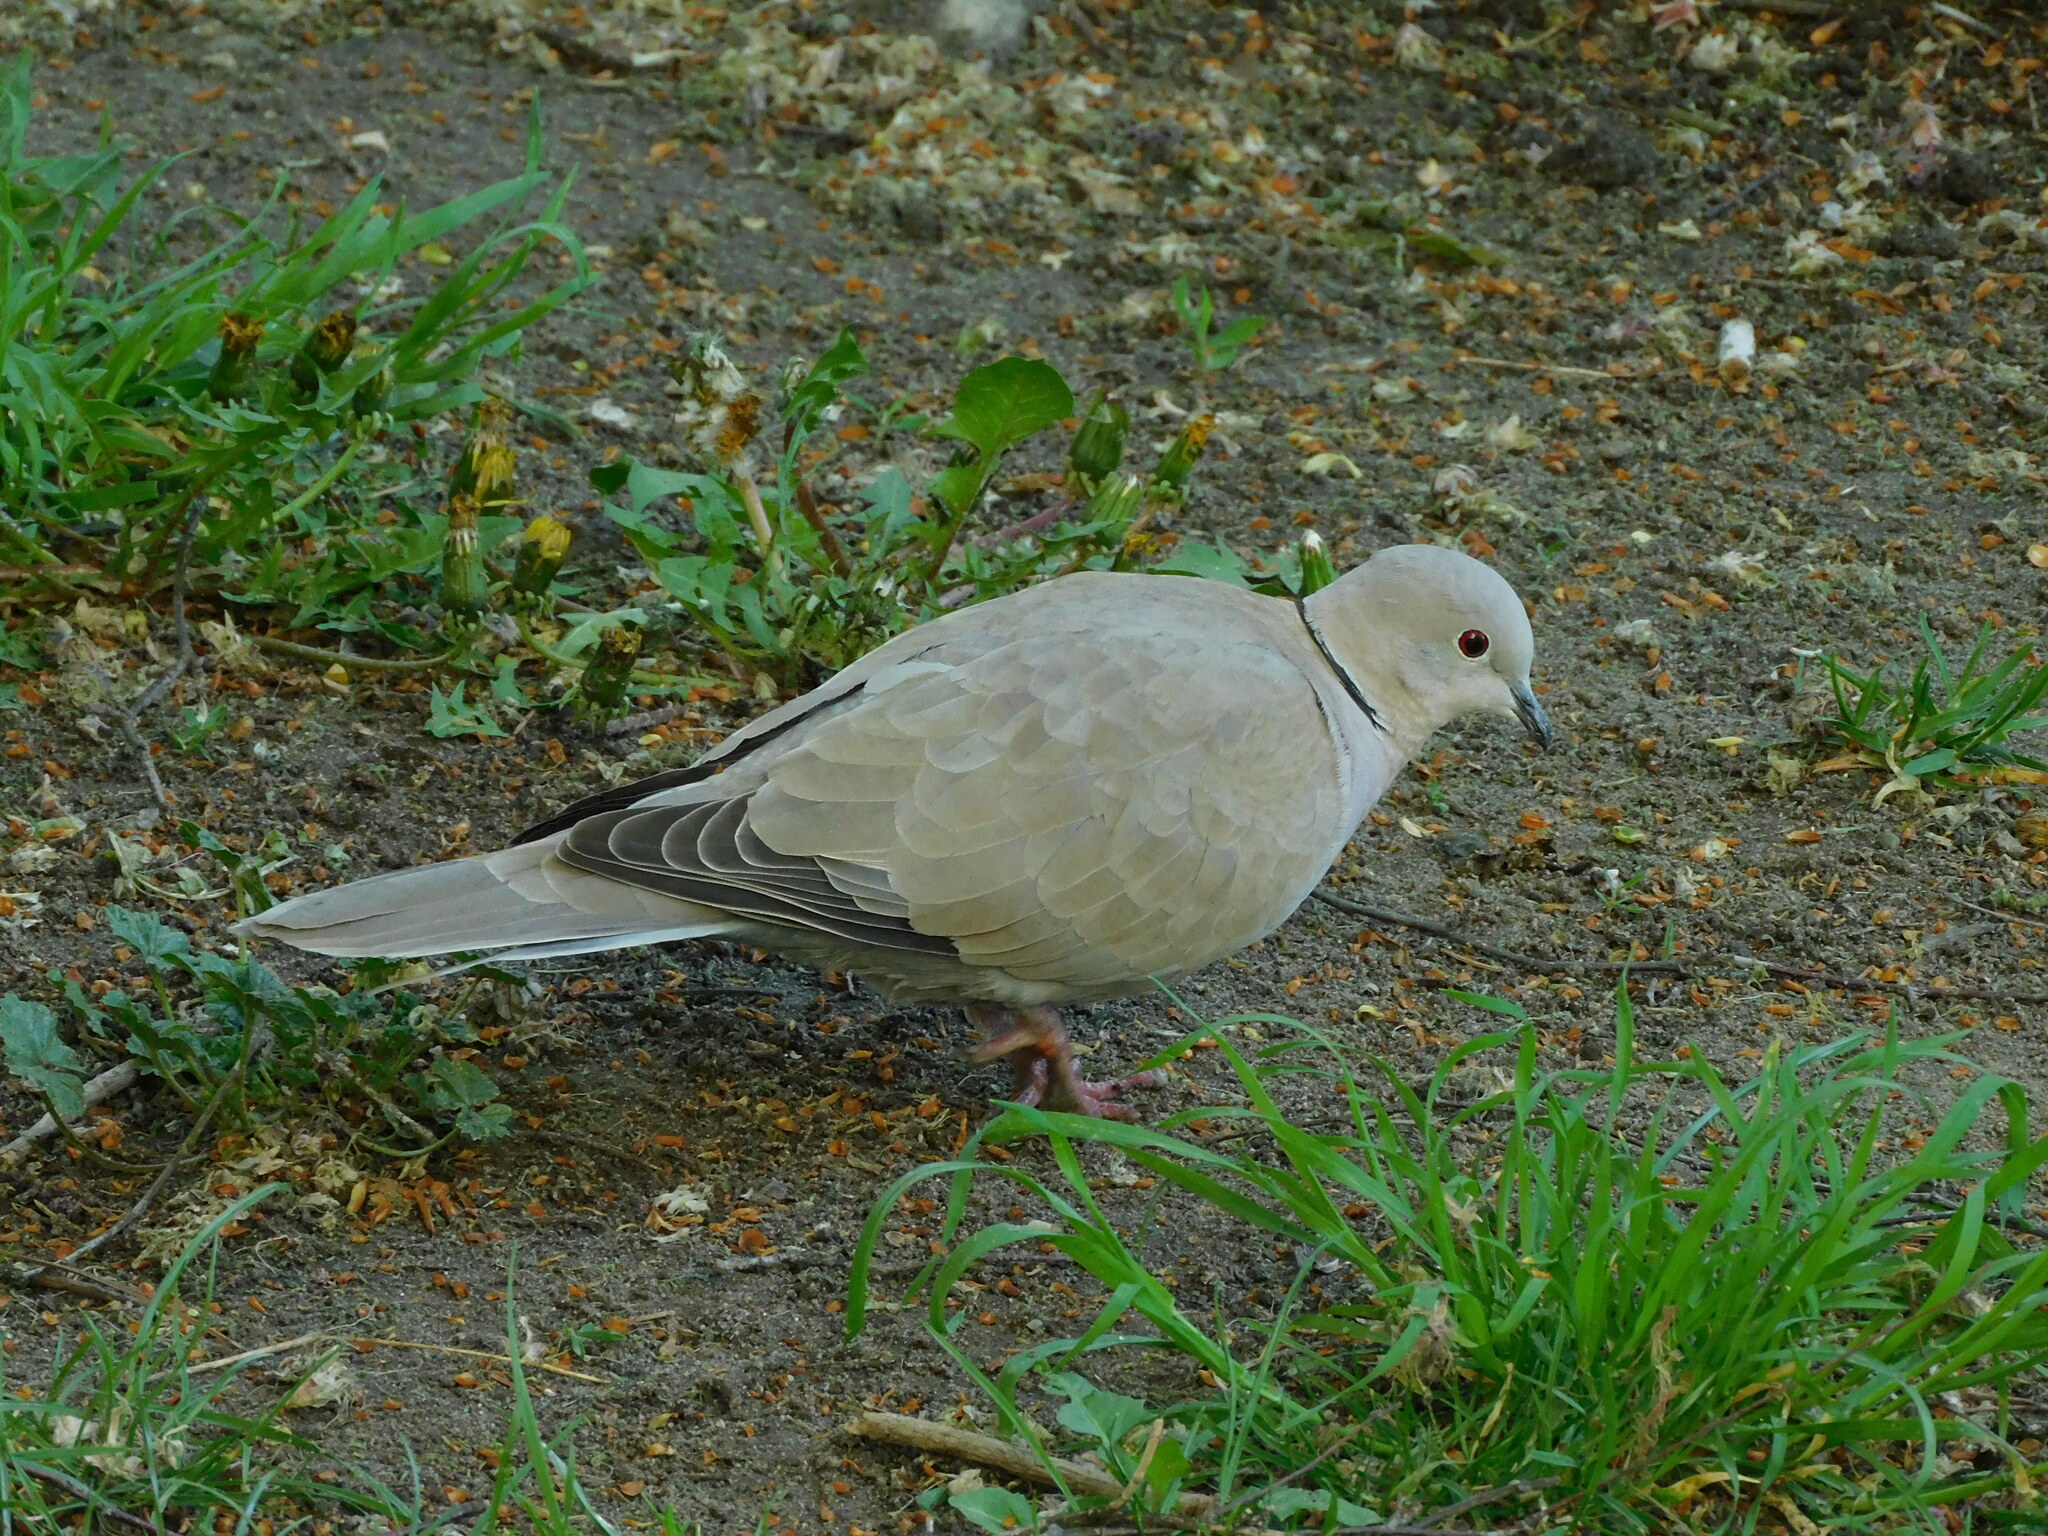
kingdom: Animalia
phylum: Chordata
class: Aves
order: Columbiformes
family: Columbidae
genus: Streptopelia
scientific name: Streptopelia decaocto
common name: Eurasian collared dove
